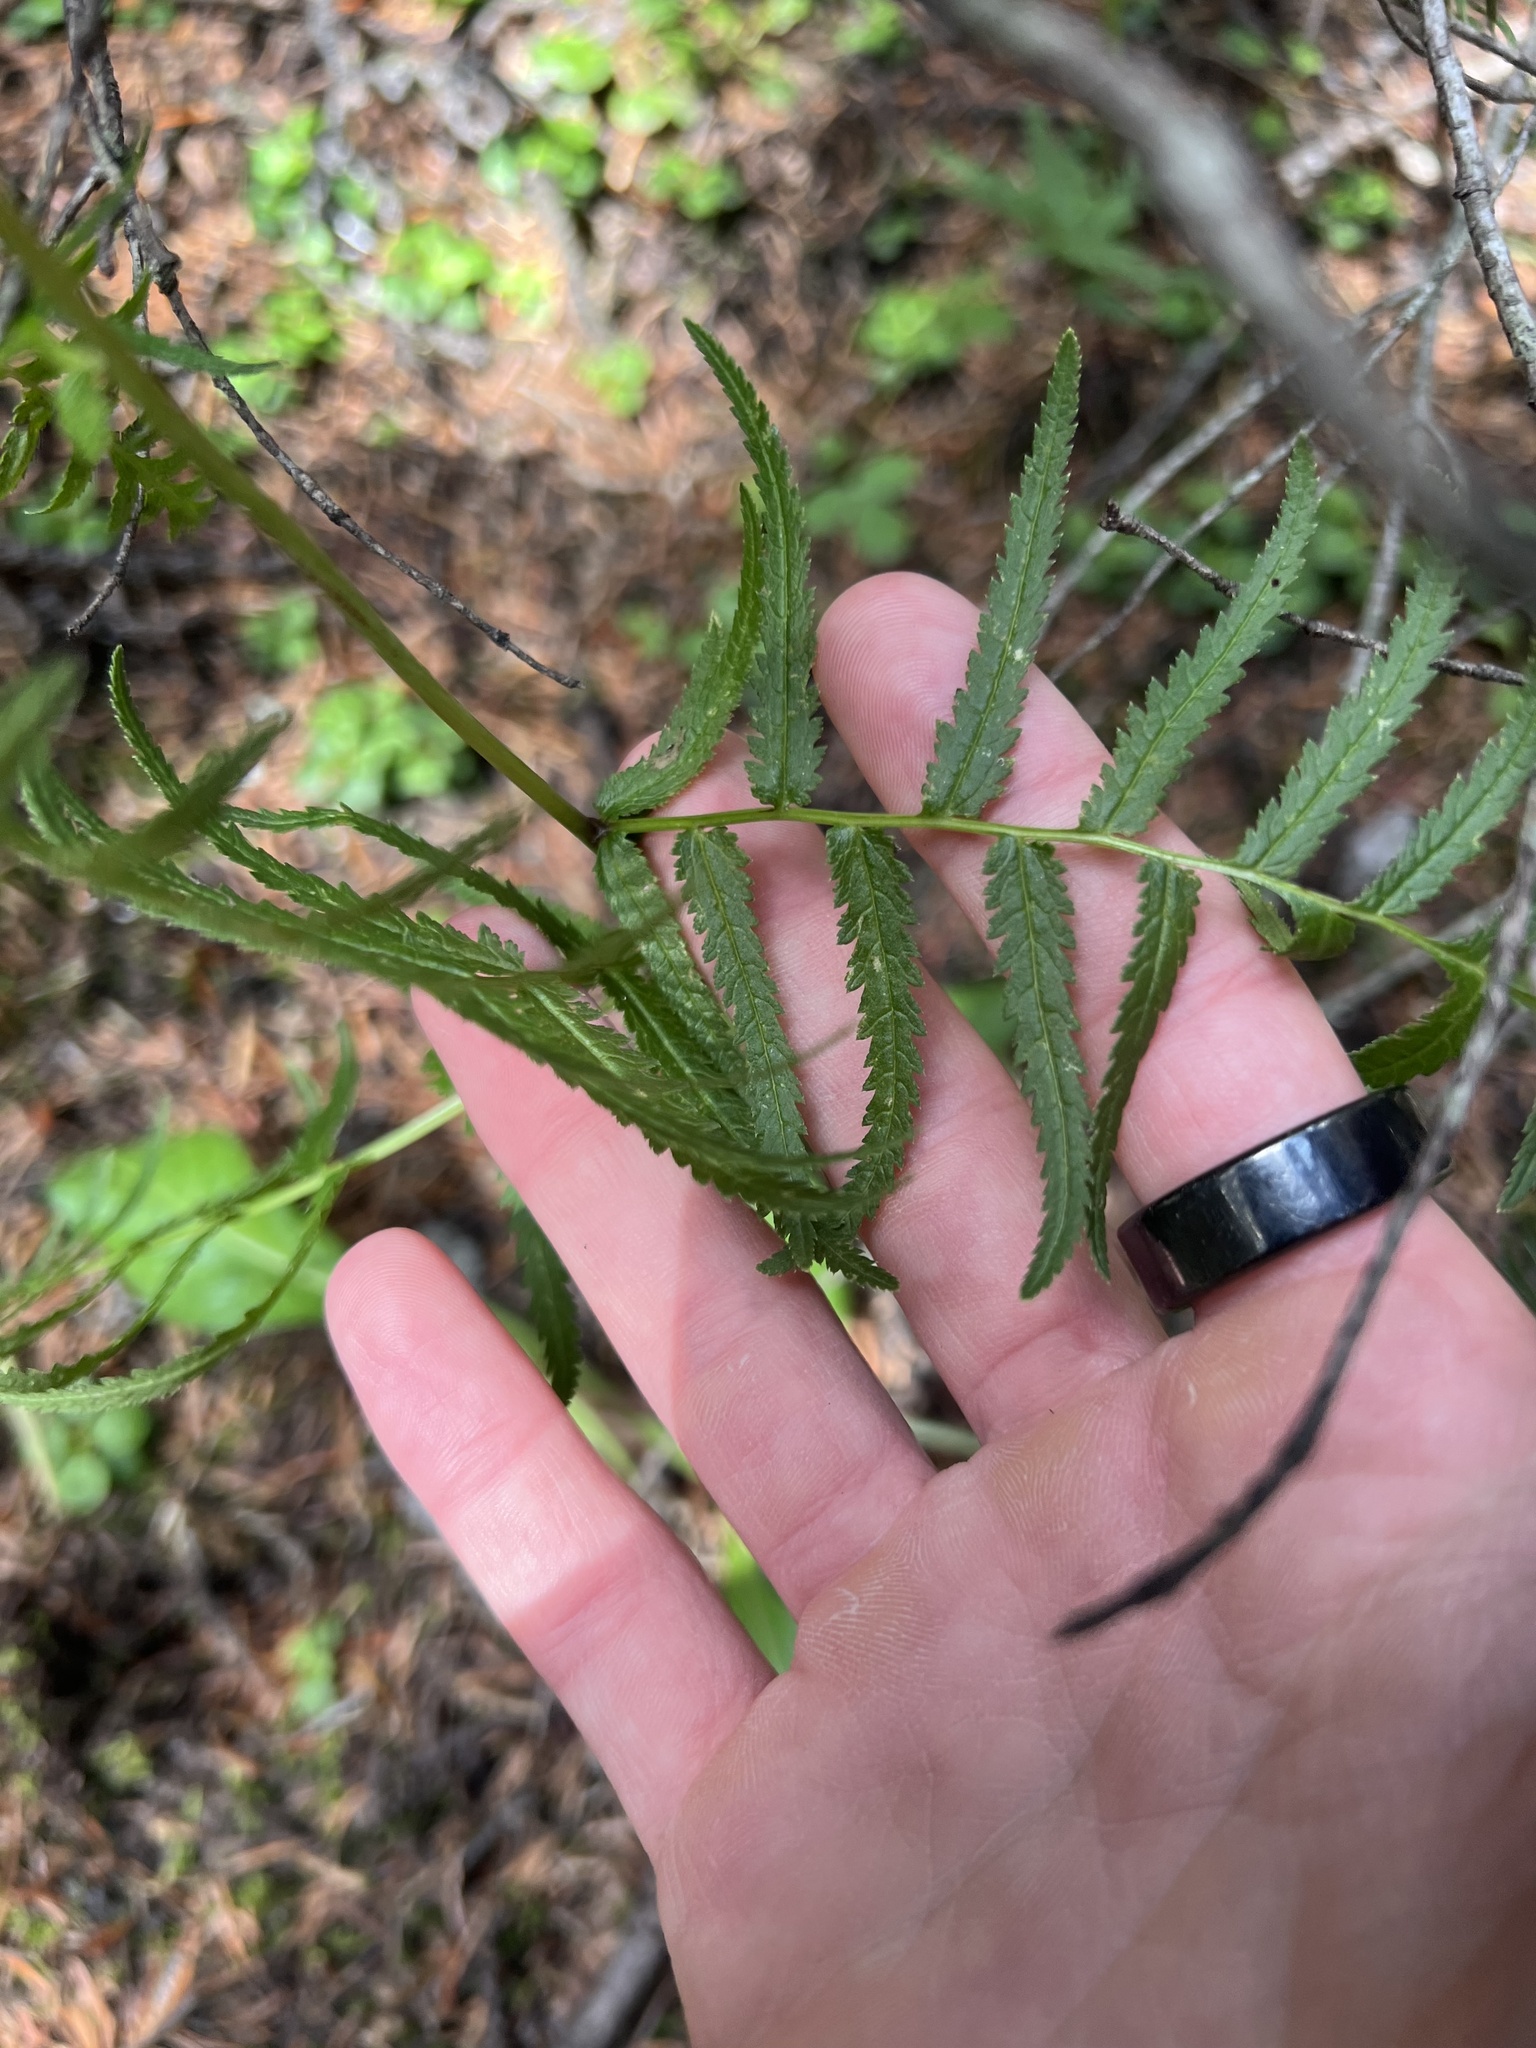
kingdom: Plantae
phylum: Tracheophyta
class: Magnoliopsida
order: Lamiales
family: Orobanchaceae
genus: Pedicularis
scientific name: Pedicularis bracteosa
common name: Bracted lousewort
